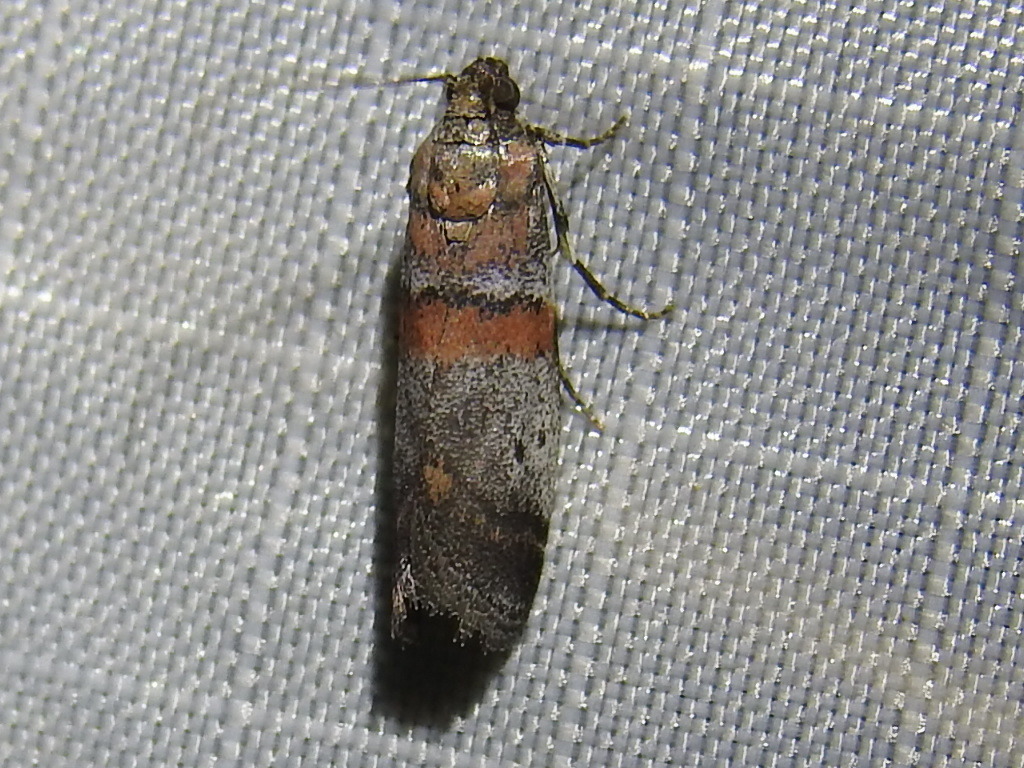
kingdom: Animalia
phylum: Arthropoda
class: Insecta
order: Lepidoptera
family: Pyralidae
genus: Acrobasis
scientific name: Acrobasis comptella
